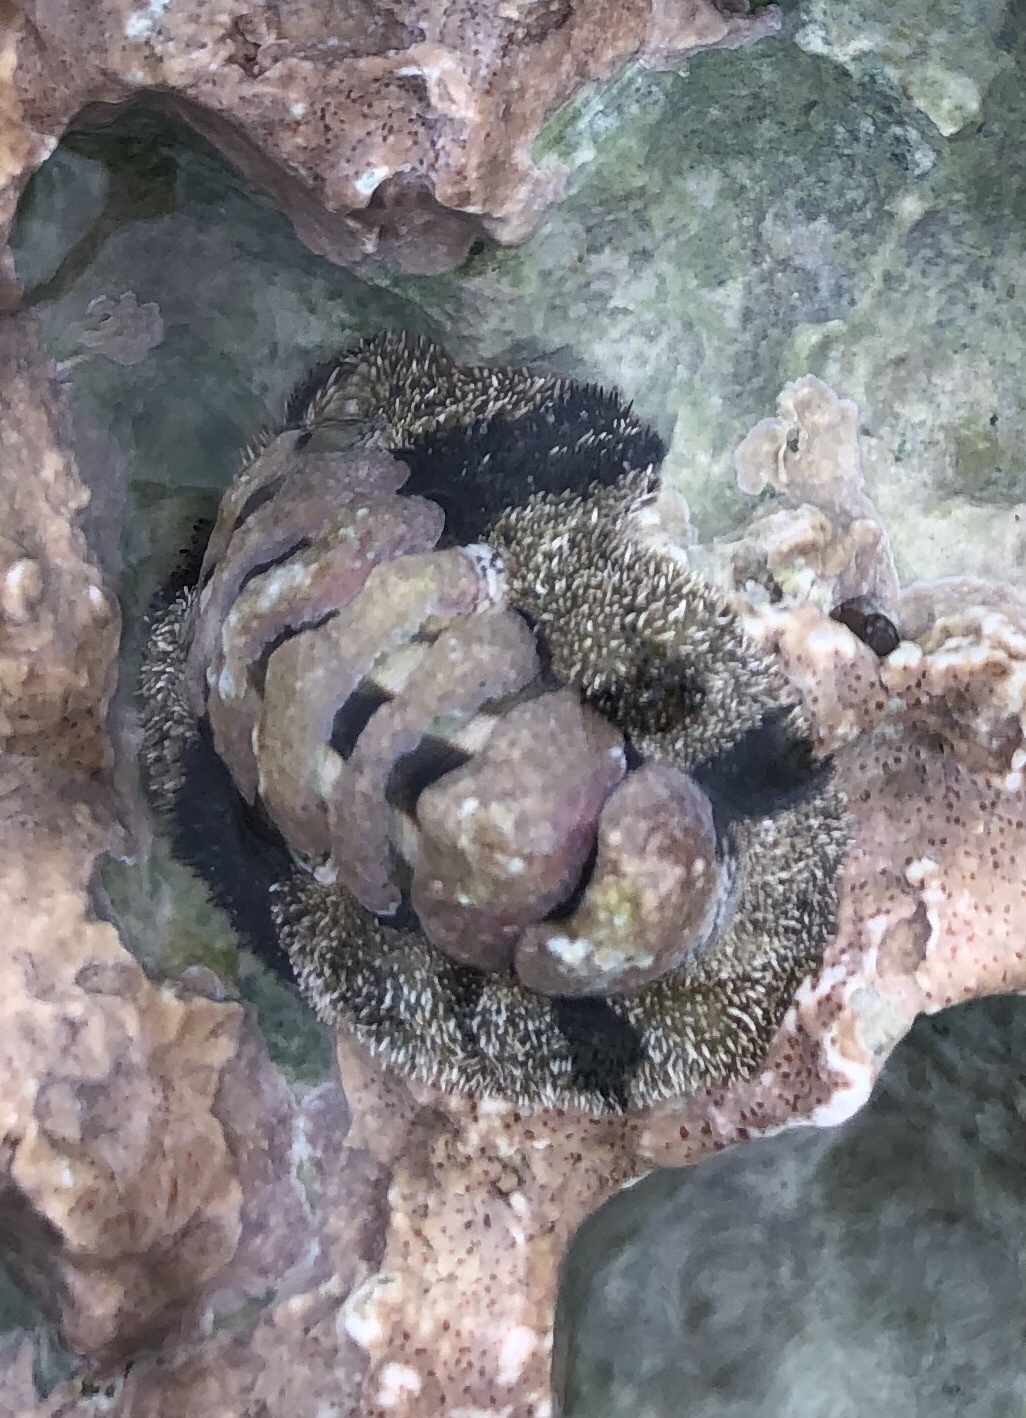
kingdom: Animalia
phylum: Mollusca
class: Polyplacophora
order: Chitonida
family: Chitonidae
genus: Acanthopleura
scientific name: Acanthopleura granulata
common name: West indian fuzzy chiton
